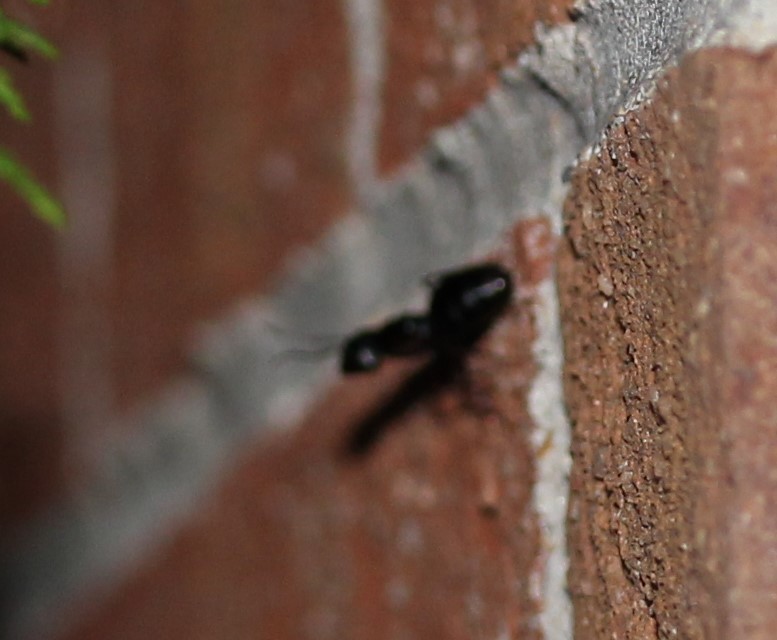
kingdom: Animalia
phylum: Arthropoda
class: Insecta
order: Hymenoptera
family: Formicidae
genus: Camponotus
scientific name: Camponotus pennsylvanicus
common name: Black carpenter ant
